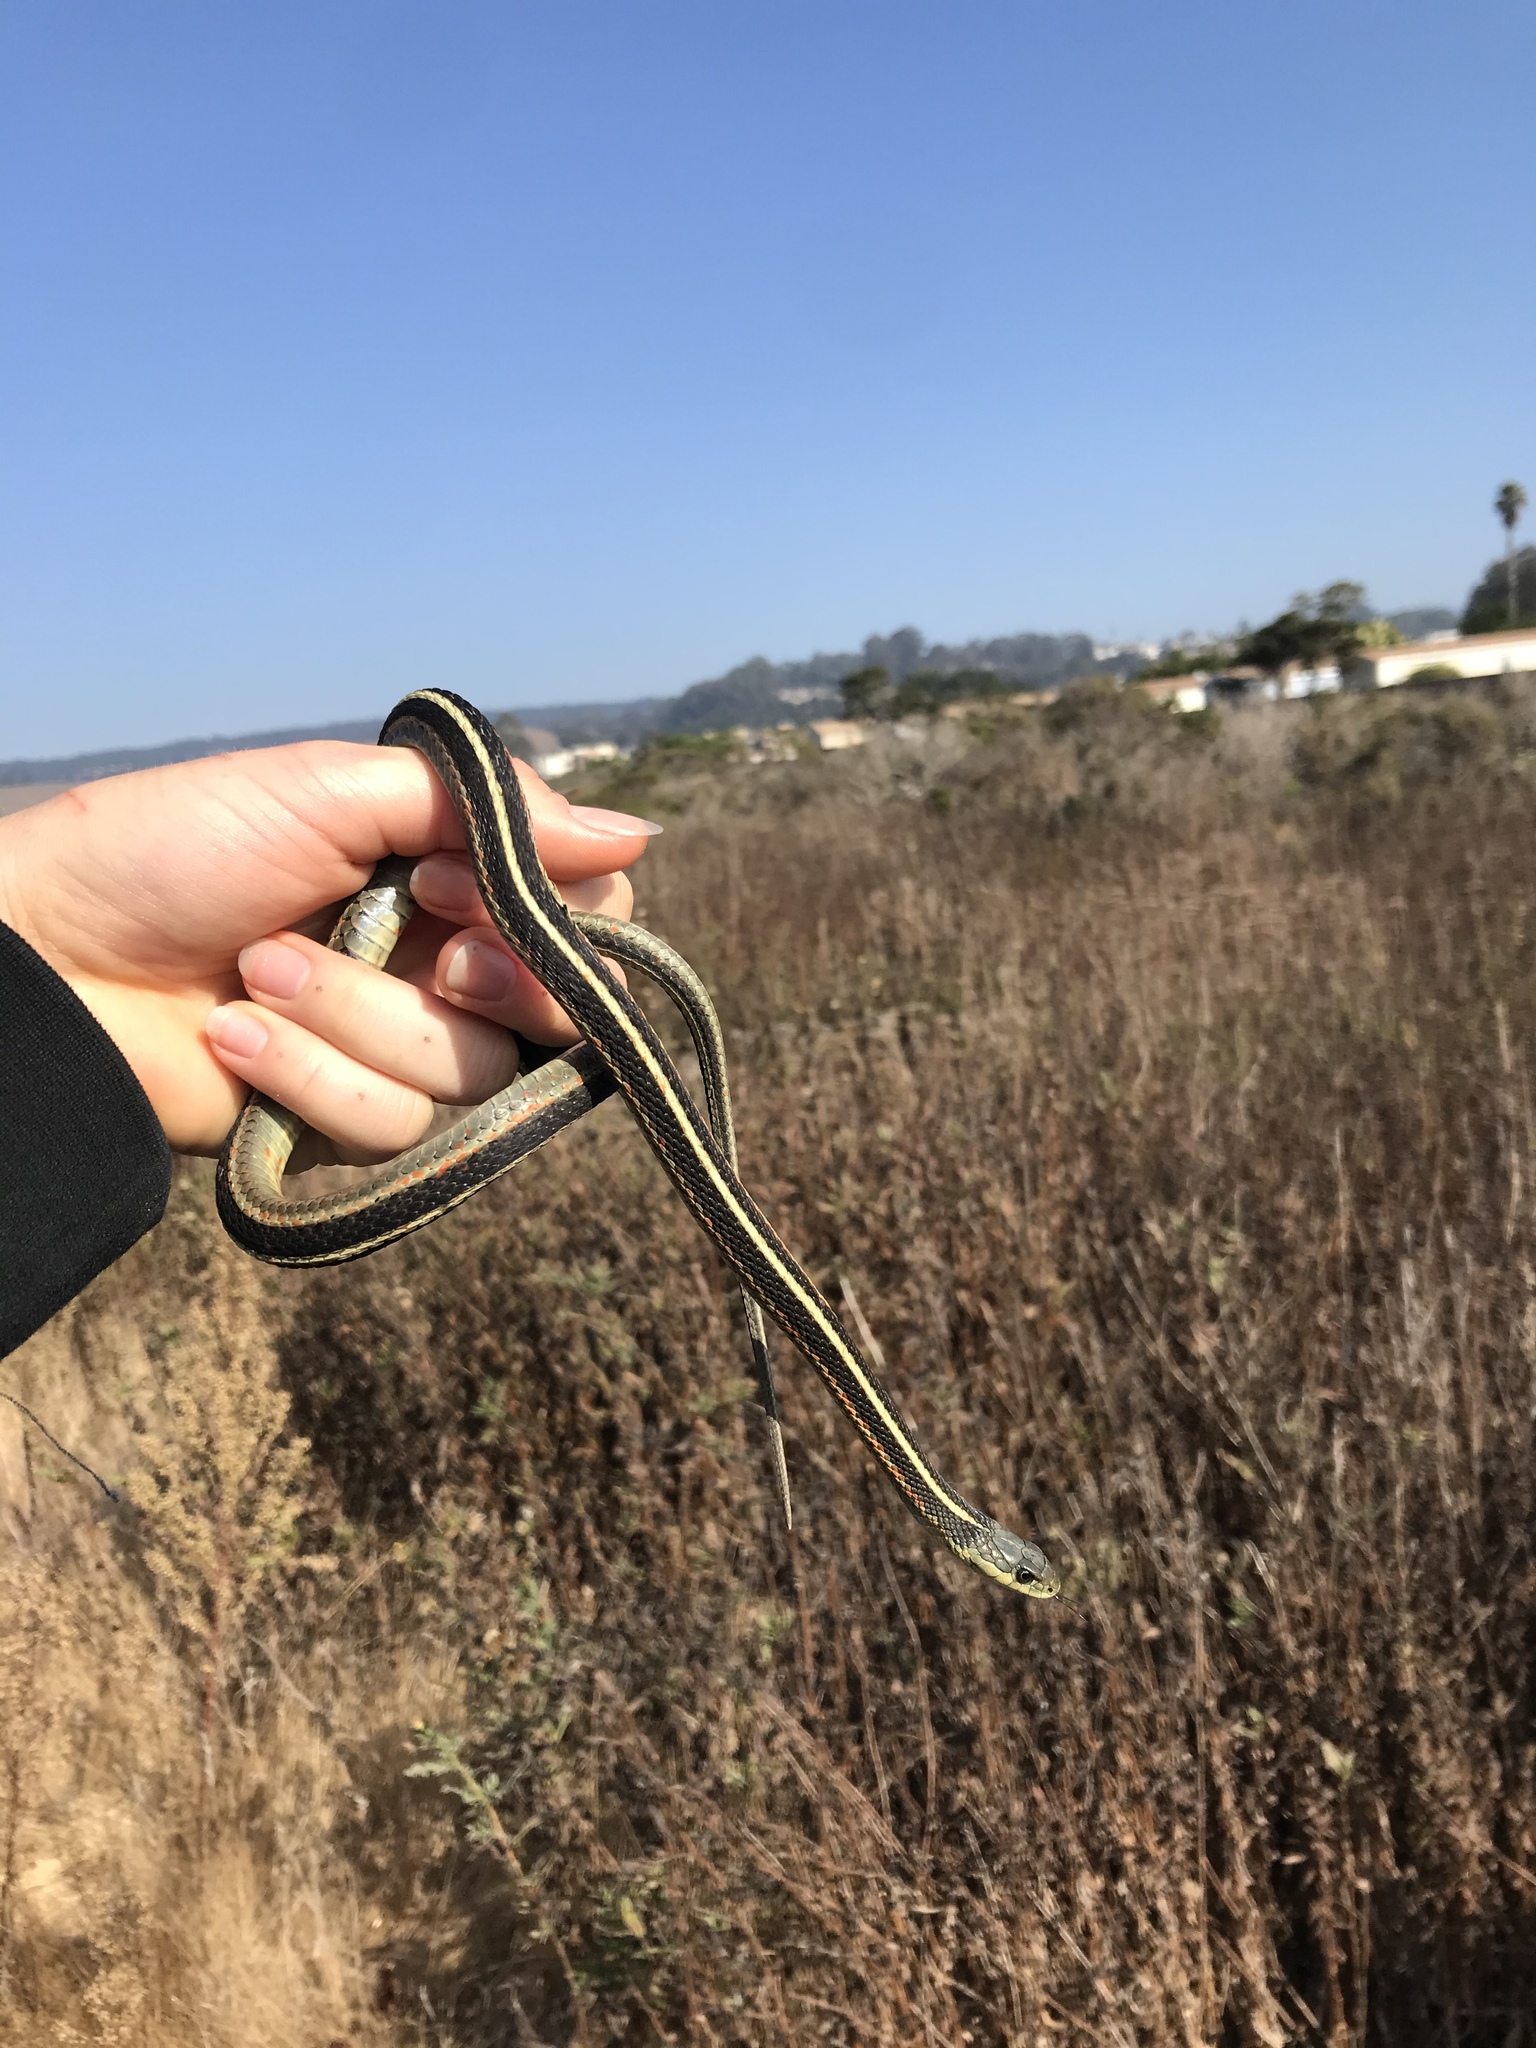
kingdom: Animalia
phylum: Chordata
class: Squamata
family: Colubridae
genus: Thamnophis
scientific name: Thamnophis elegans
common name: Western terrestrial garter snake
